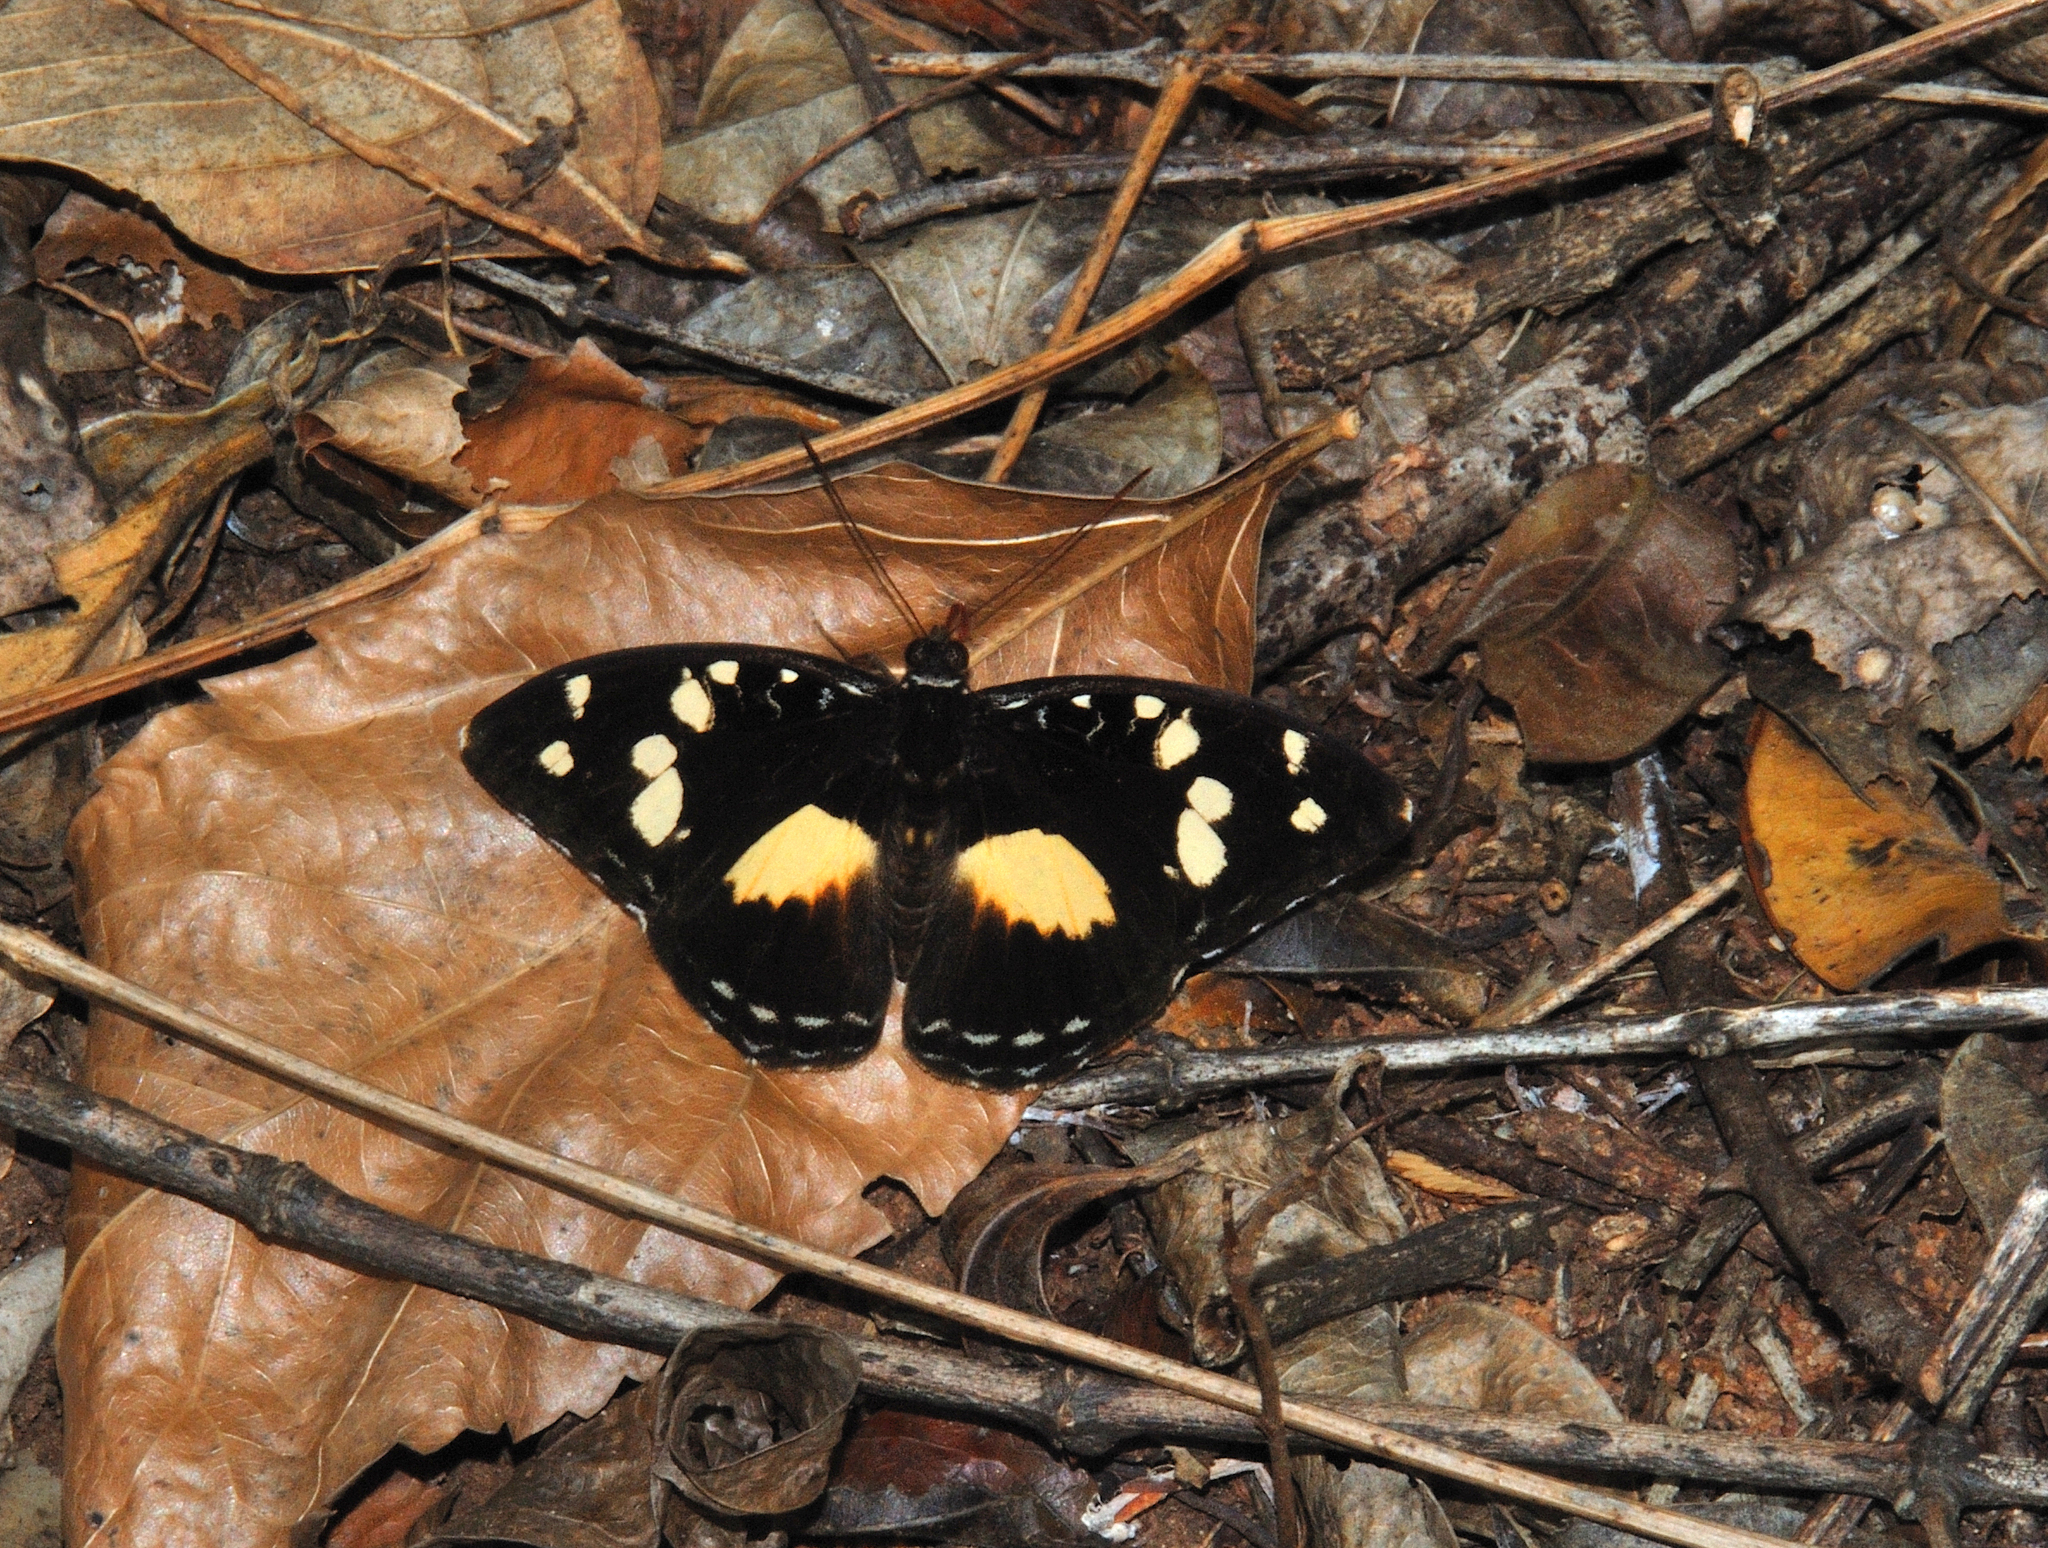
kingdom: Animalia
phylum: Arthropoda
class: Insecta
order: Lepidoptera
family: Nymphalidae
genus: Aterica
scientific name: Aterica galene
